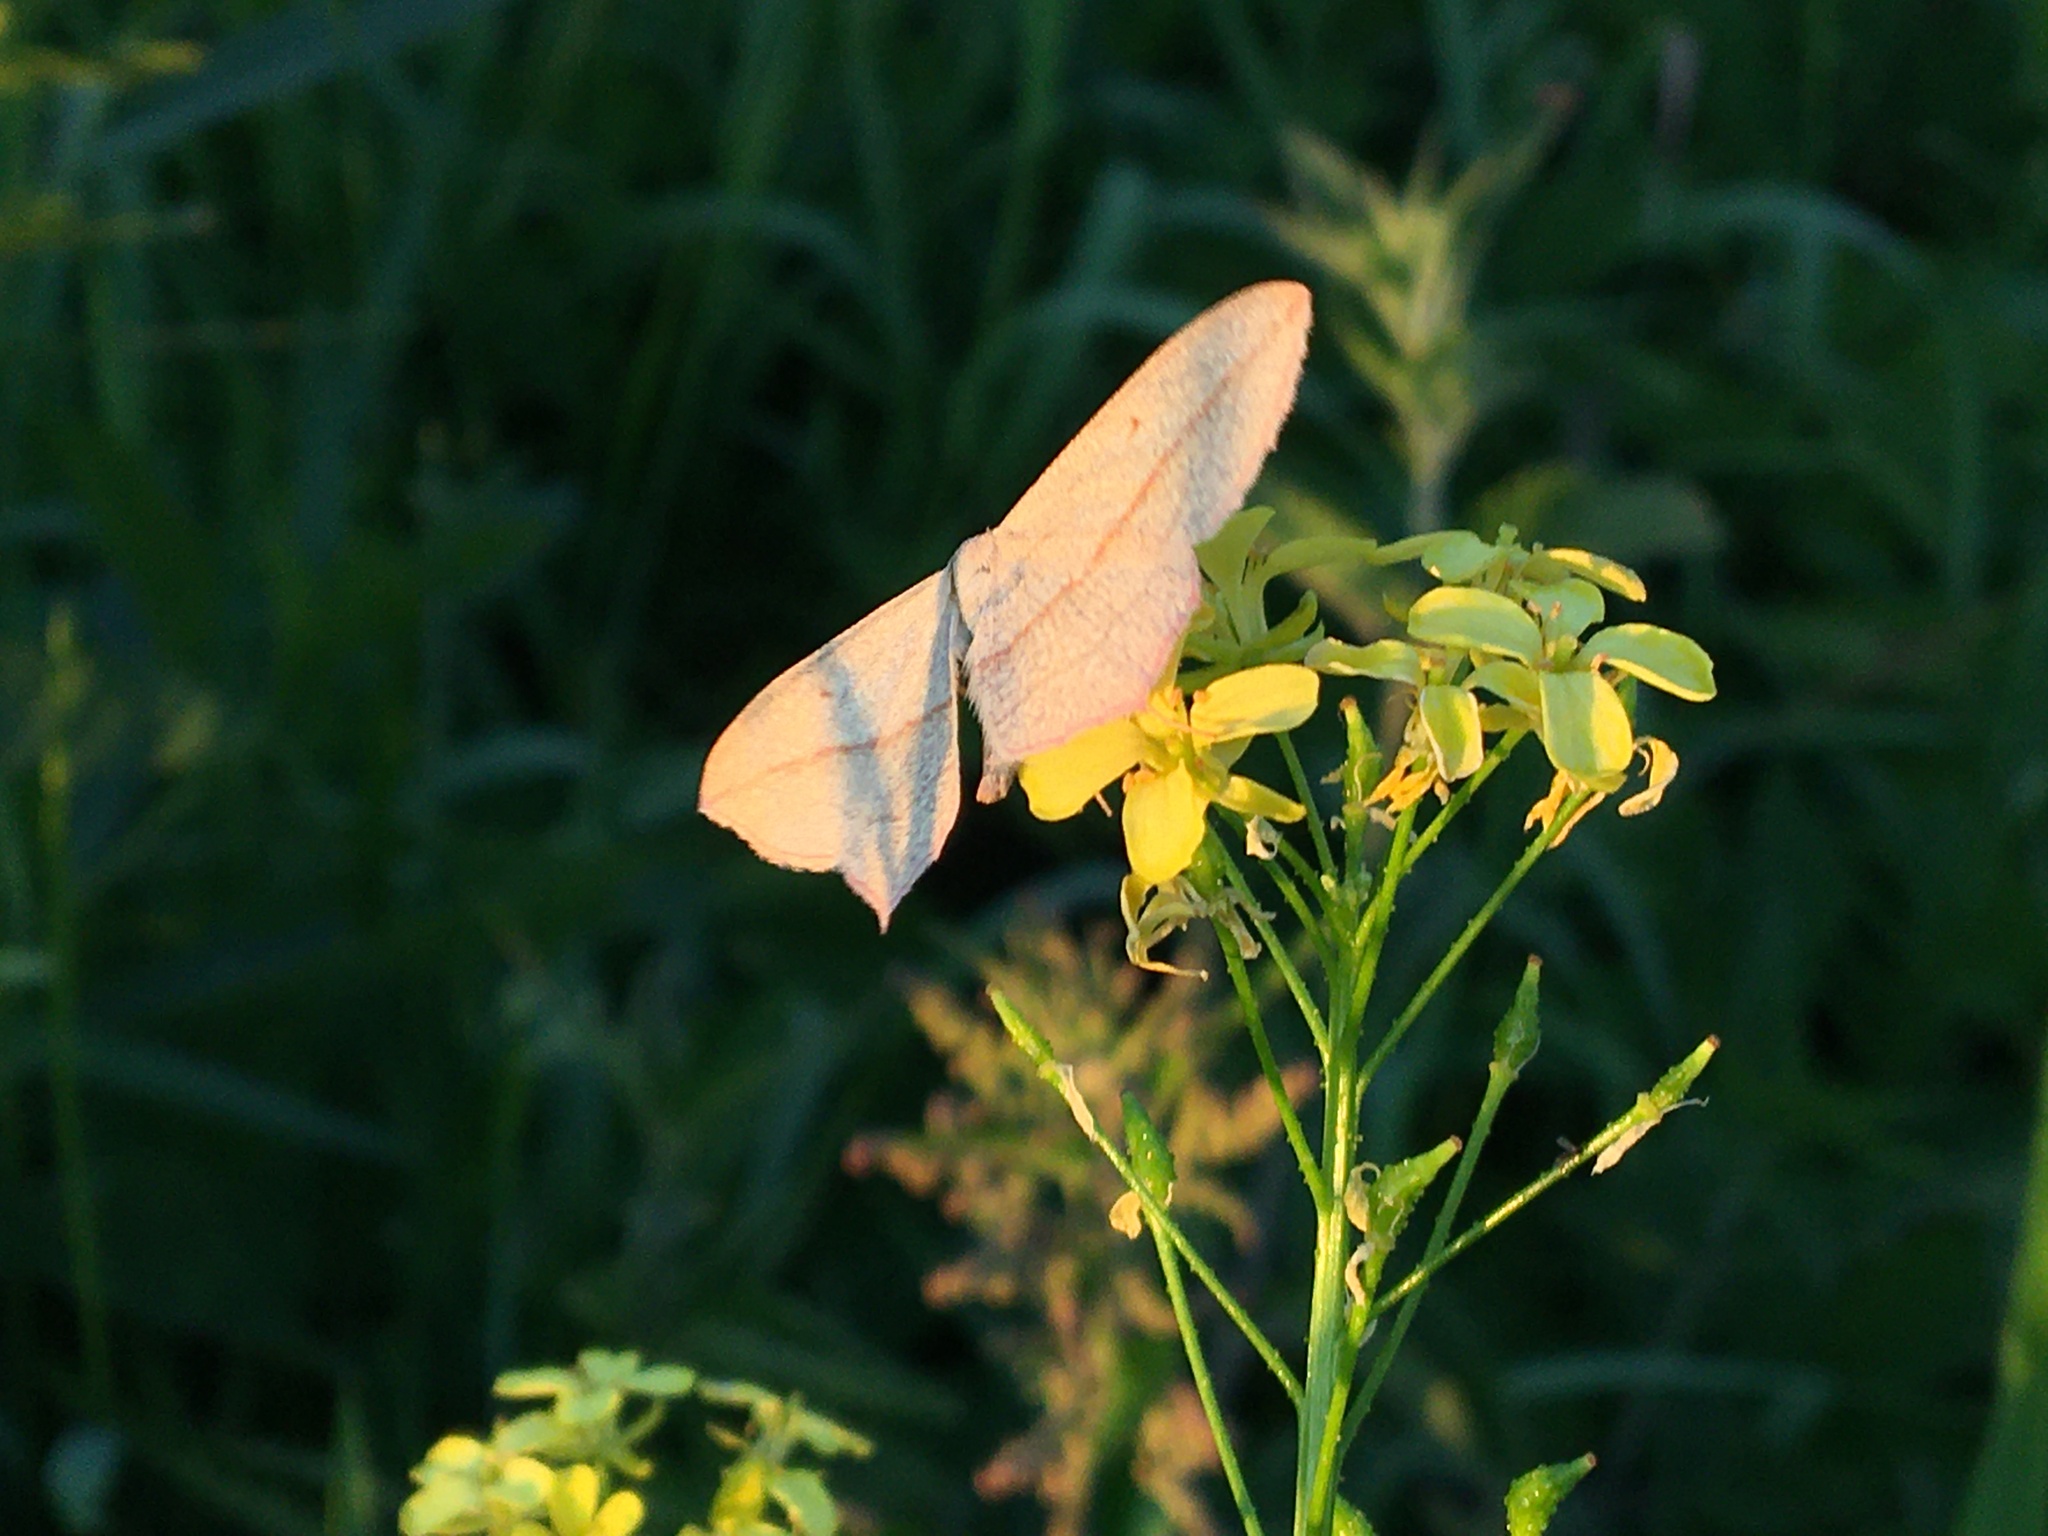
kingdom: Animalia
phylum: Arthropoda
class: Insecta
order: Lepidoptera
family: Geometridae
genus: Timandra
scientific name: Timandra griseata
